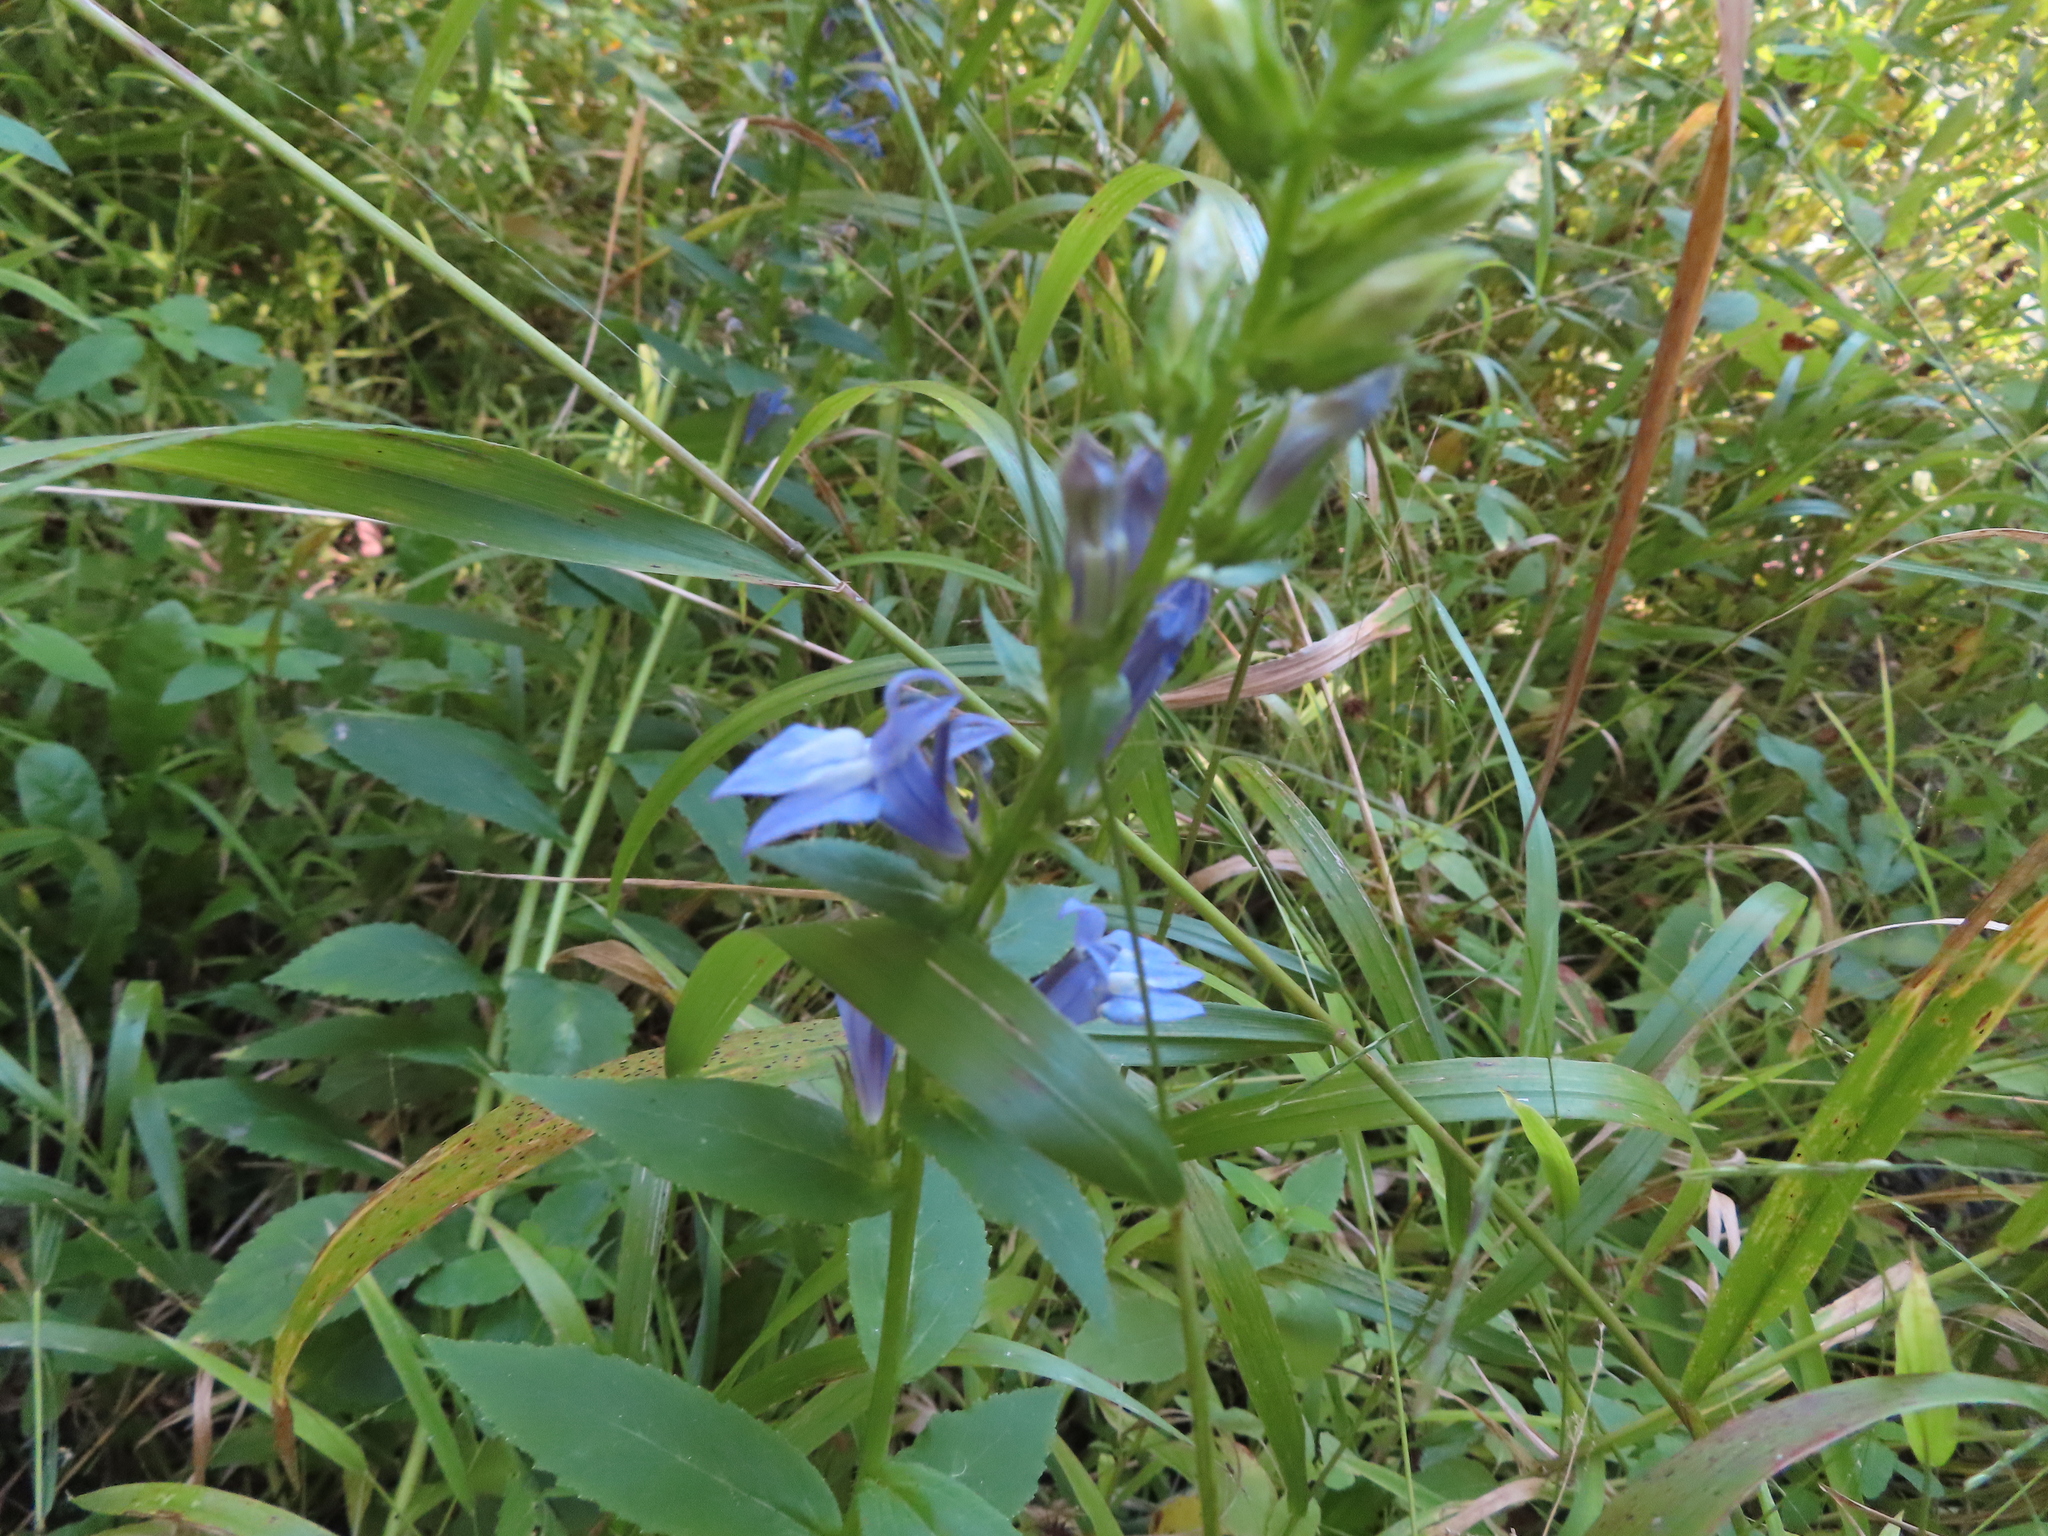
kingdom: Plantae
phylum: Tracheophyta
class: Magnoliopsida
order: Asterales
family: Campanulaceae
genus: Lobelia
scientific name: Lobelia siphilitica
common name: Great lobelia
